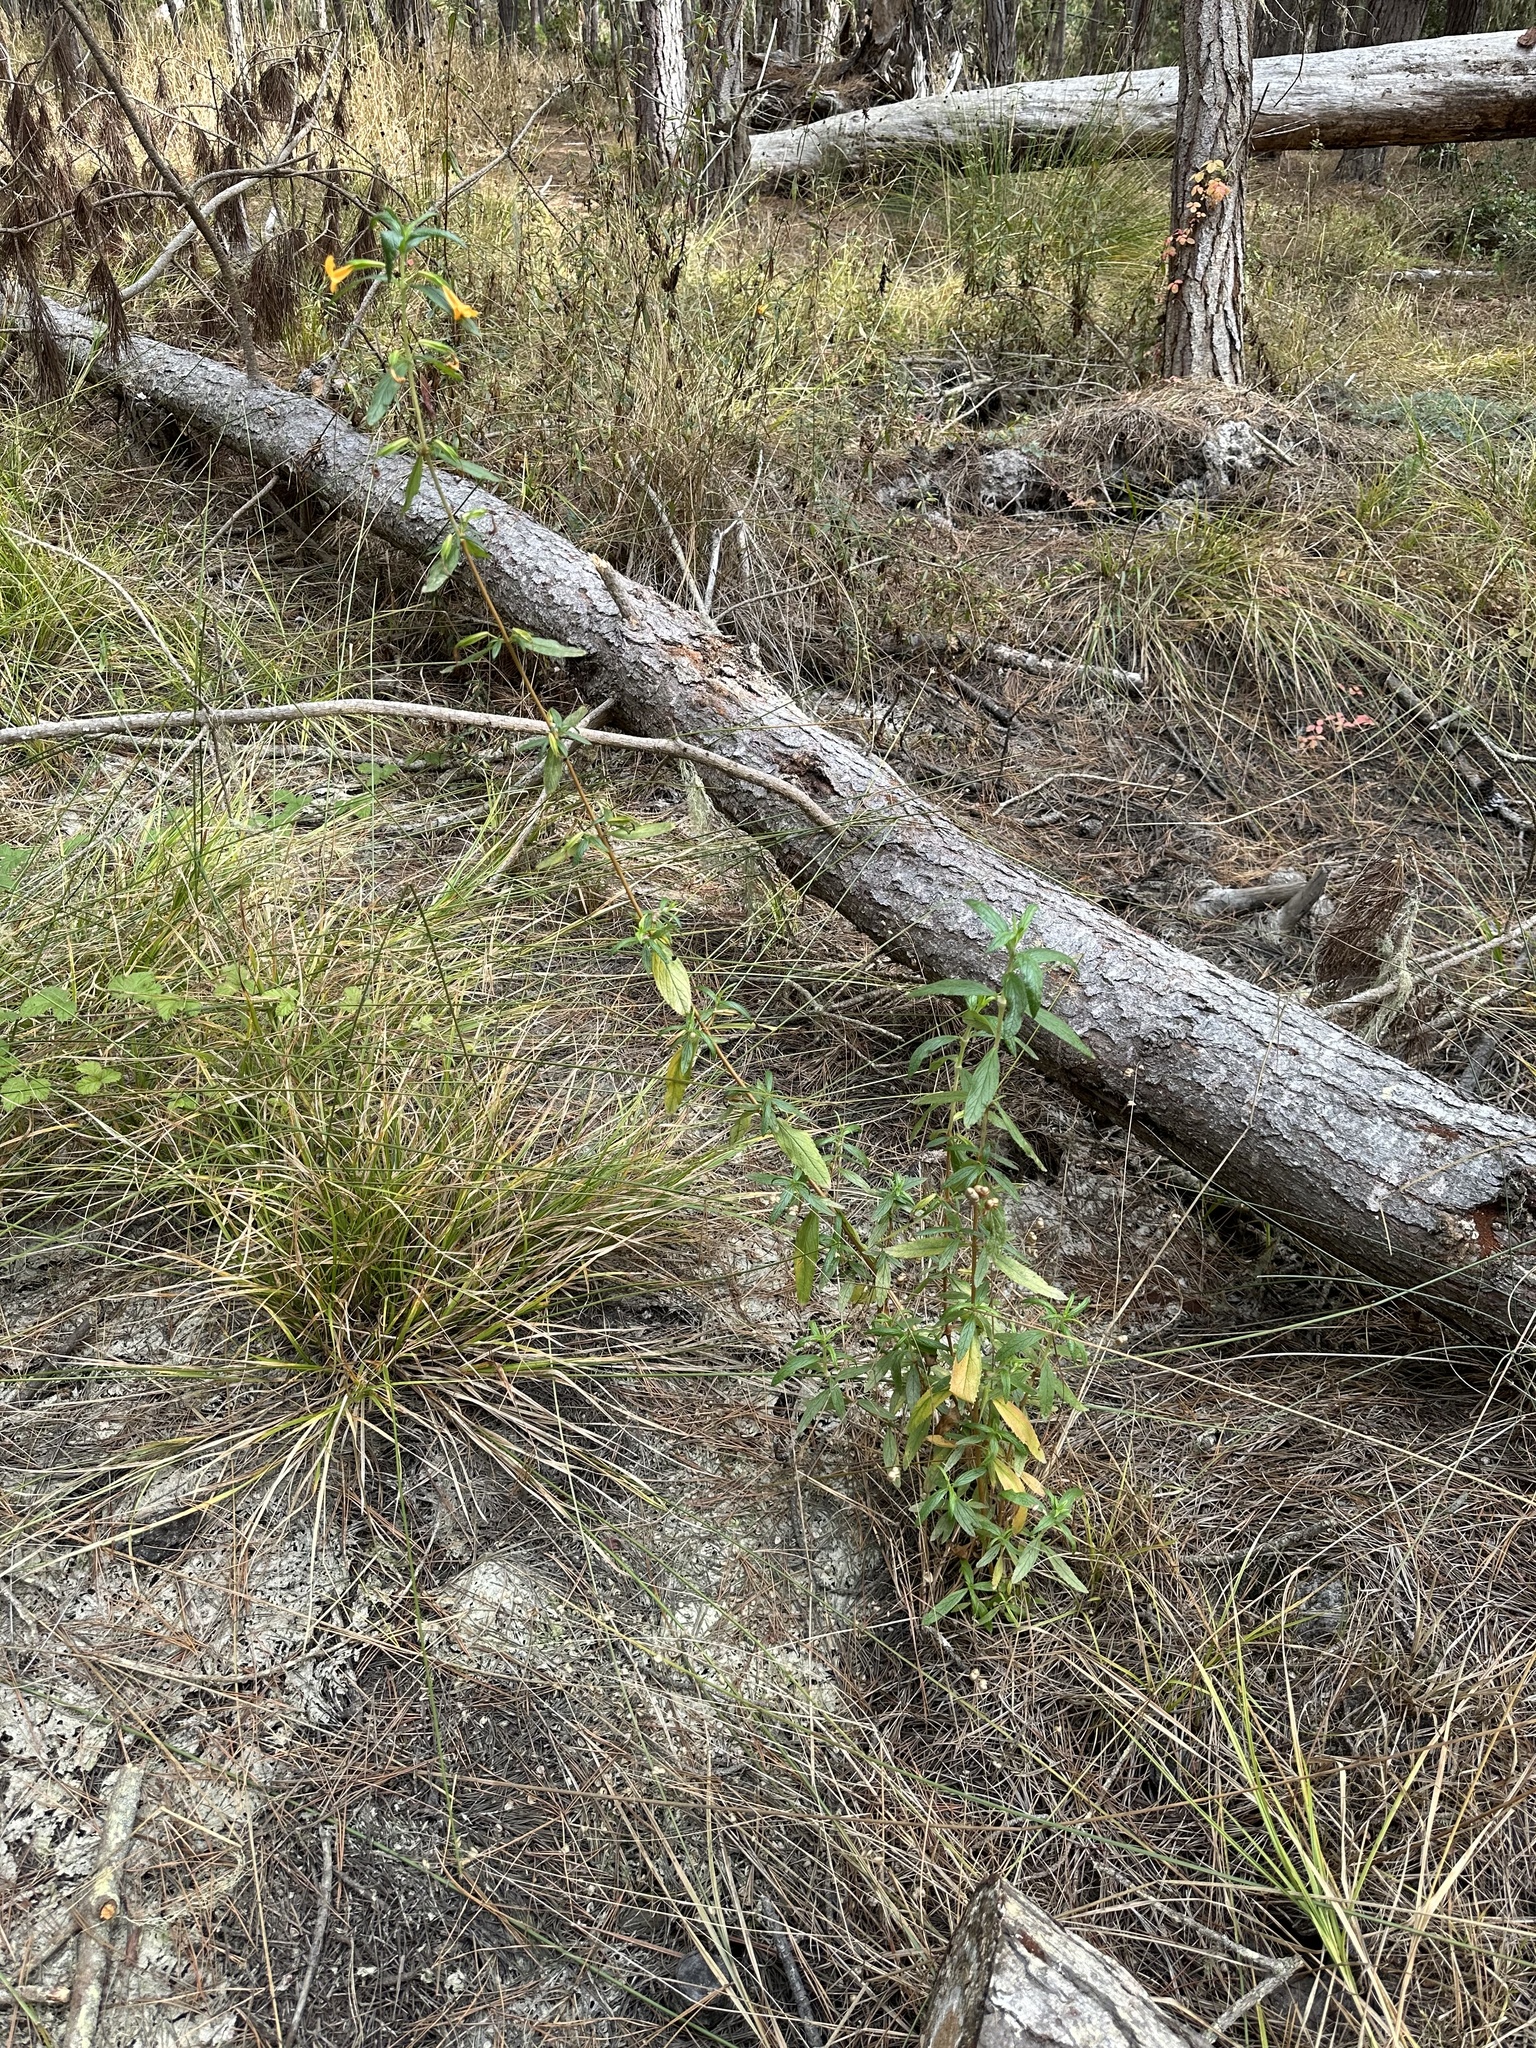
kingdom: Plantae
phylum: Tracheophyta
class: Magnoliopsida
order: Lamiales
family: Phrymaceae
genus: Diplacus
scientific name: Diplacus aurantiacus
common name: Bush monkey-flower
